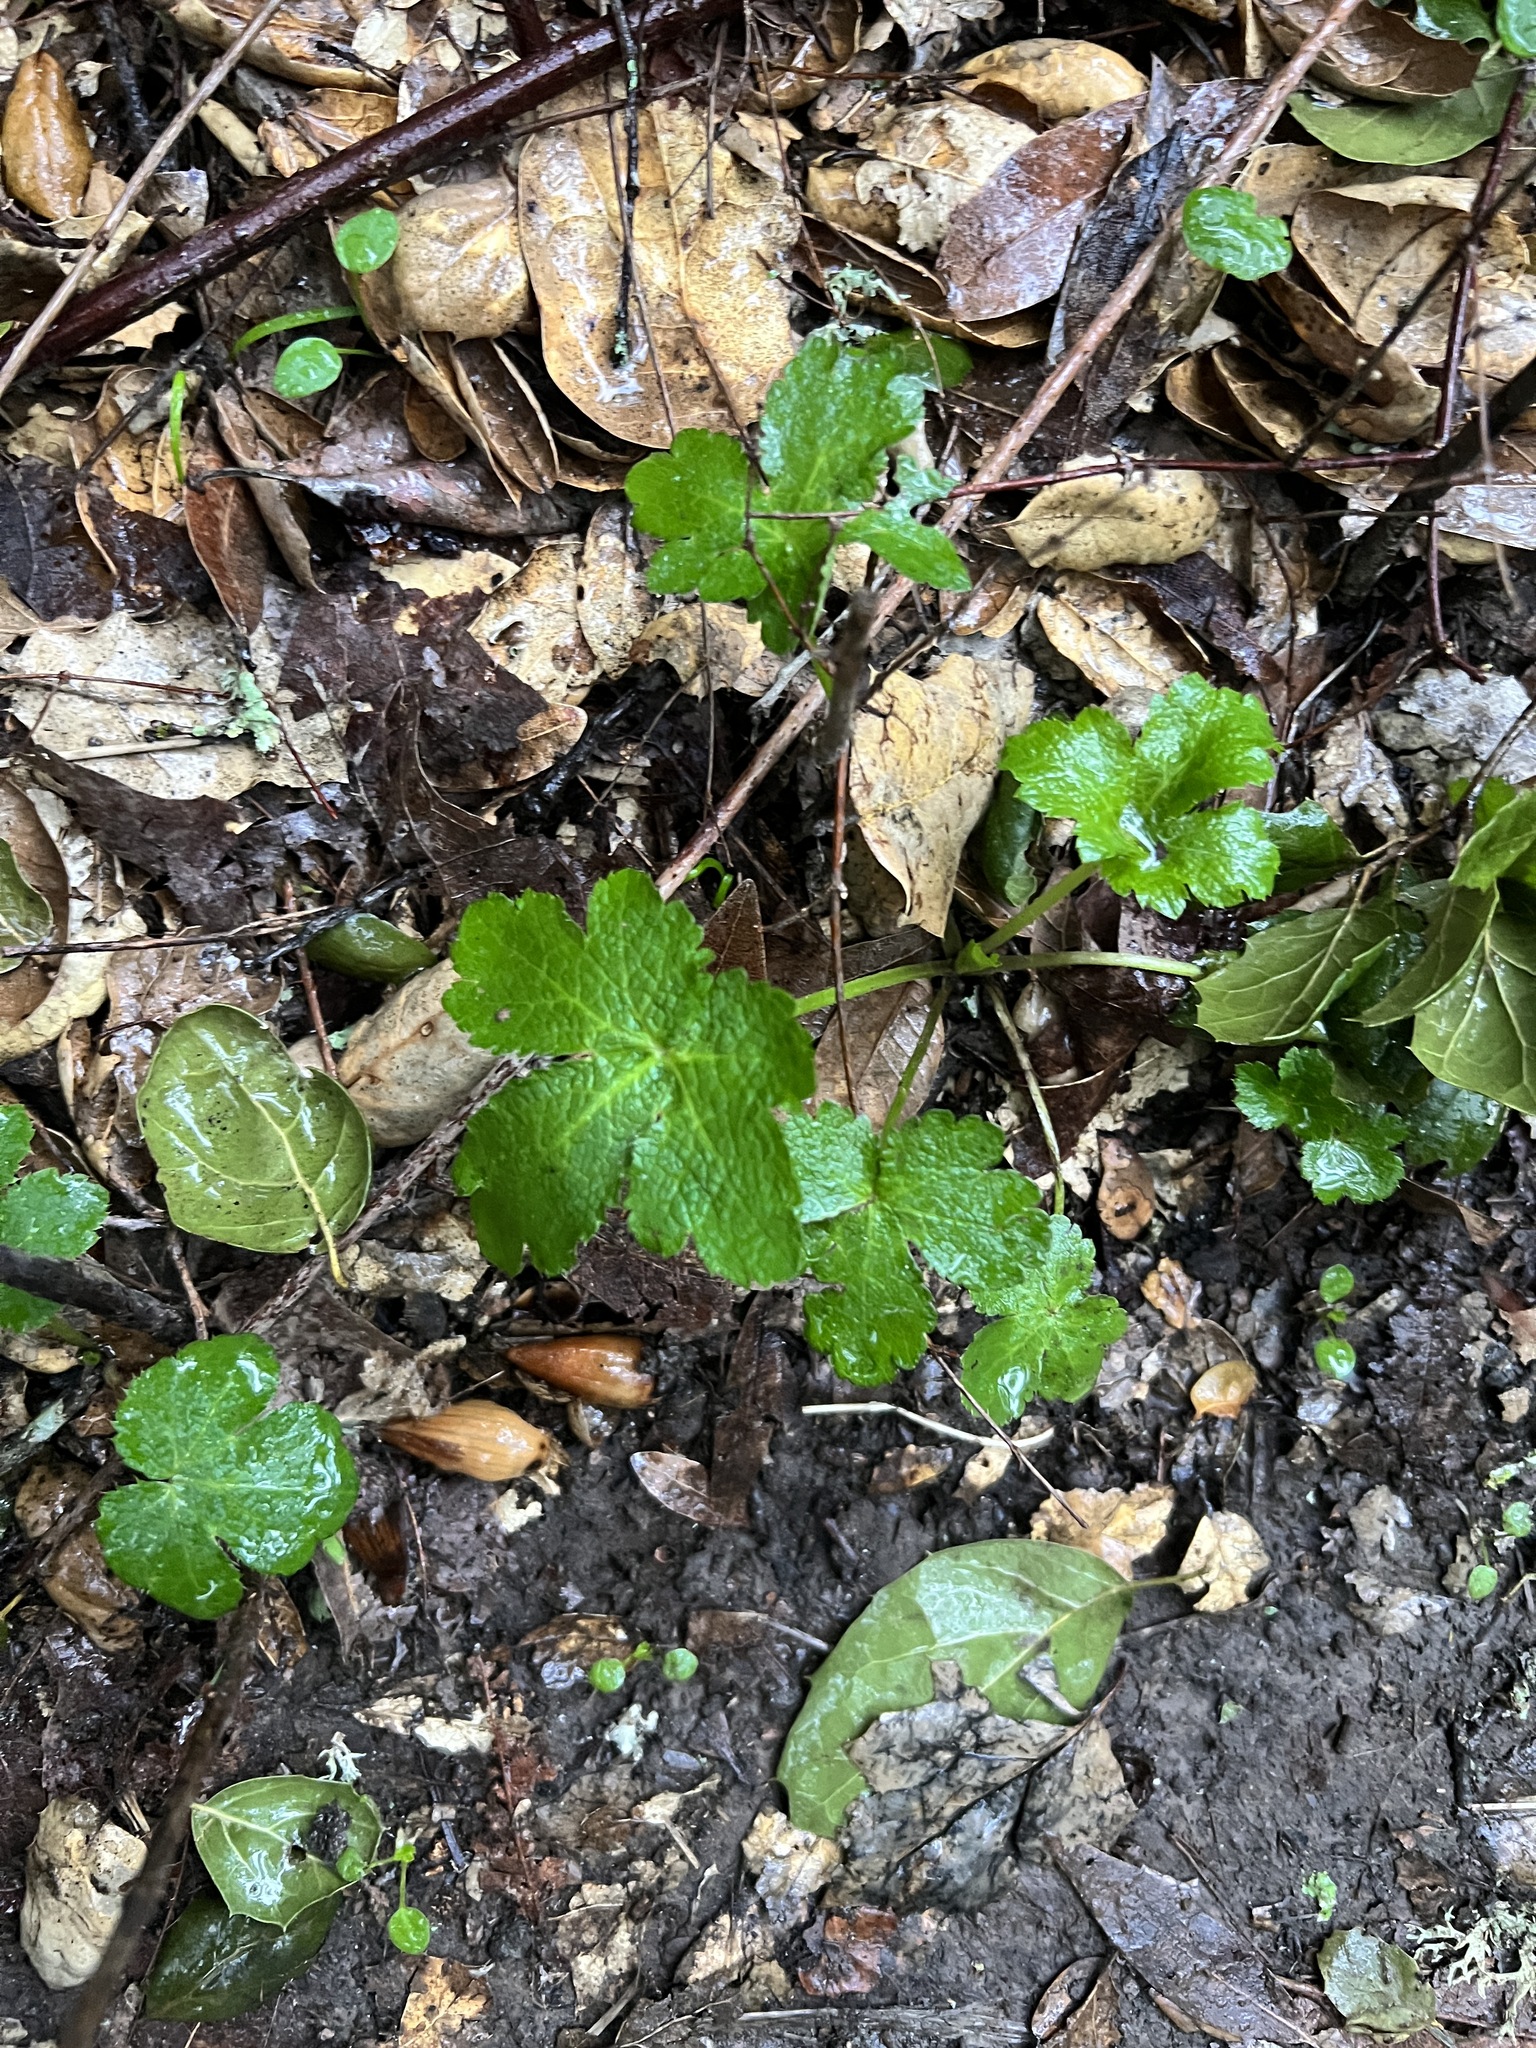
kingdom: Plantae
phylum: Tracheophyta
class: Magnoliopsida
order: Apiales
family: Apiaceae
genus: Sanicula
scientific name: Sanicula crassicaulis
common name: Western snakeroot
